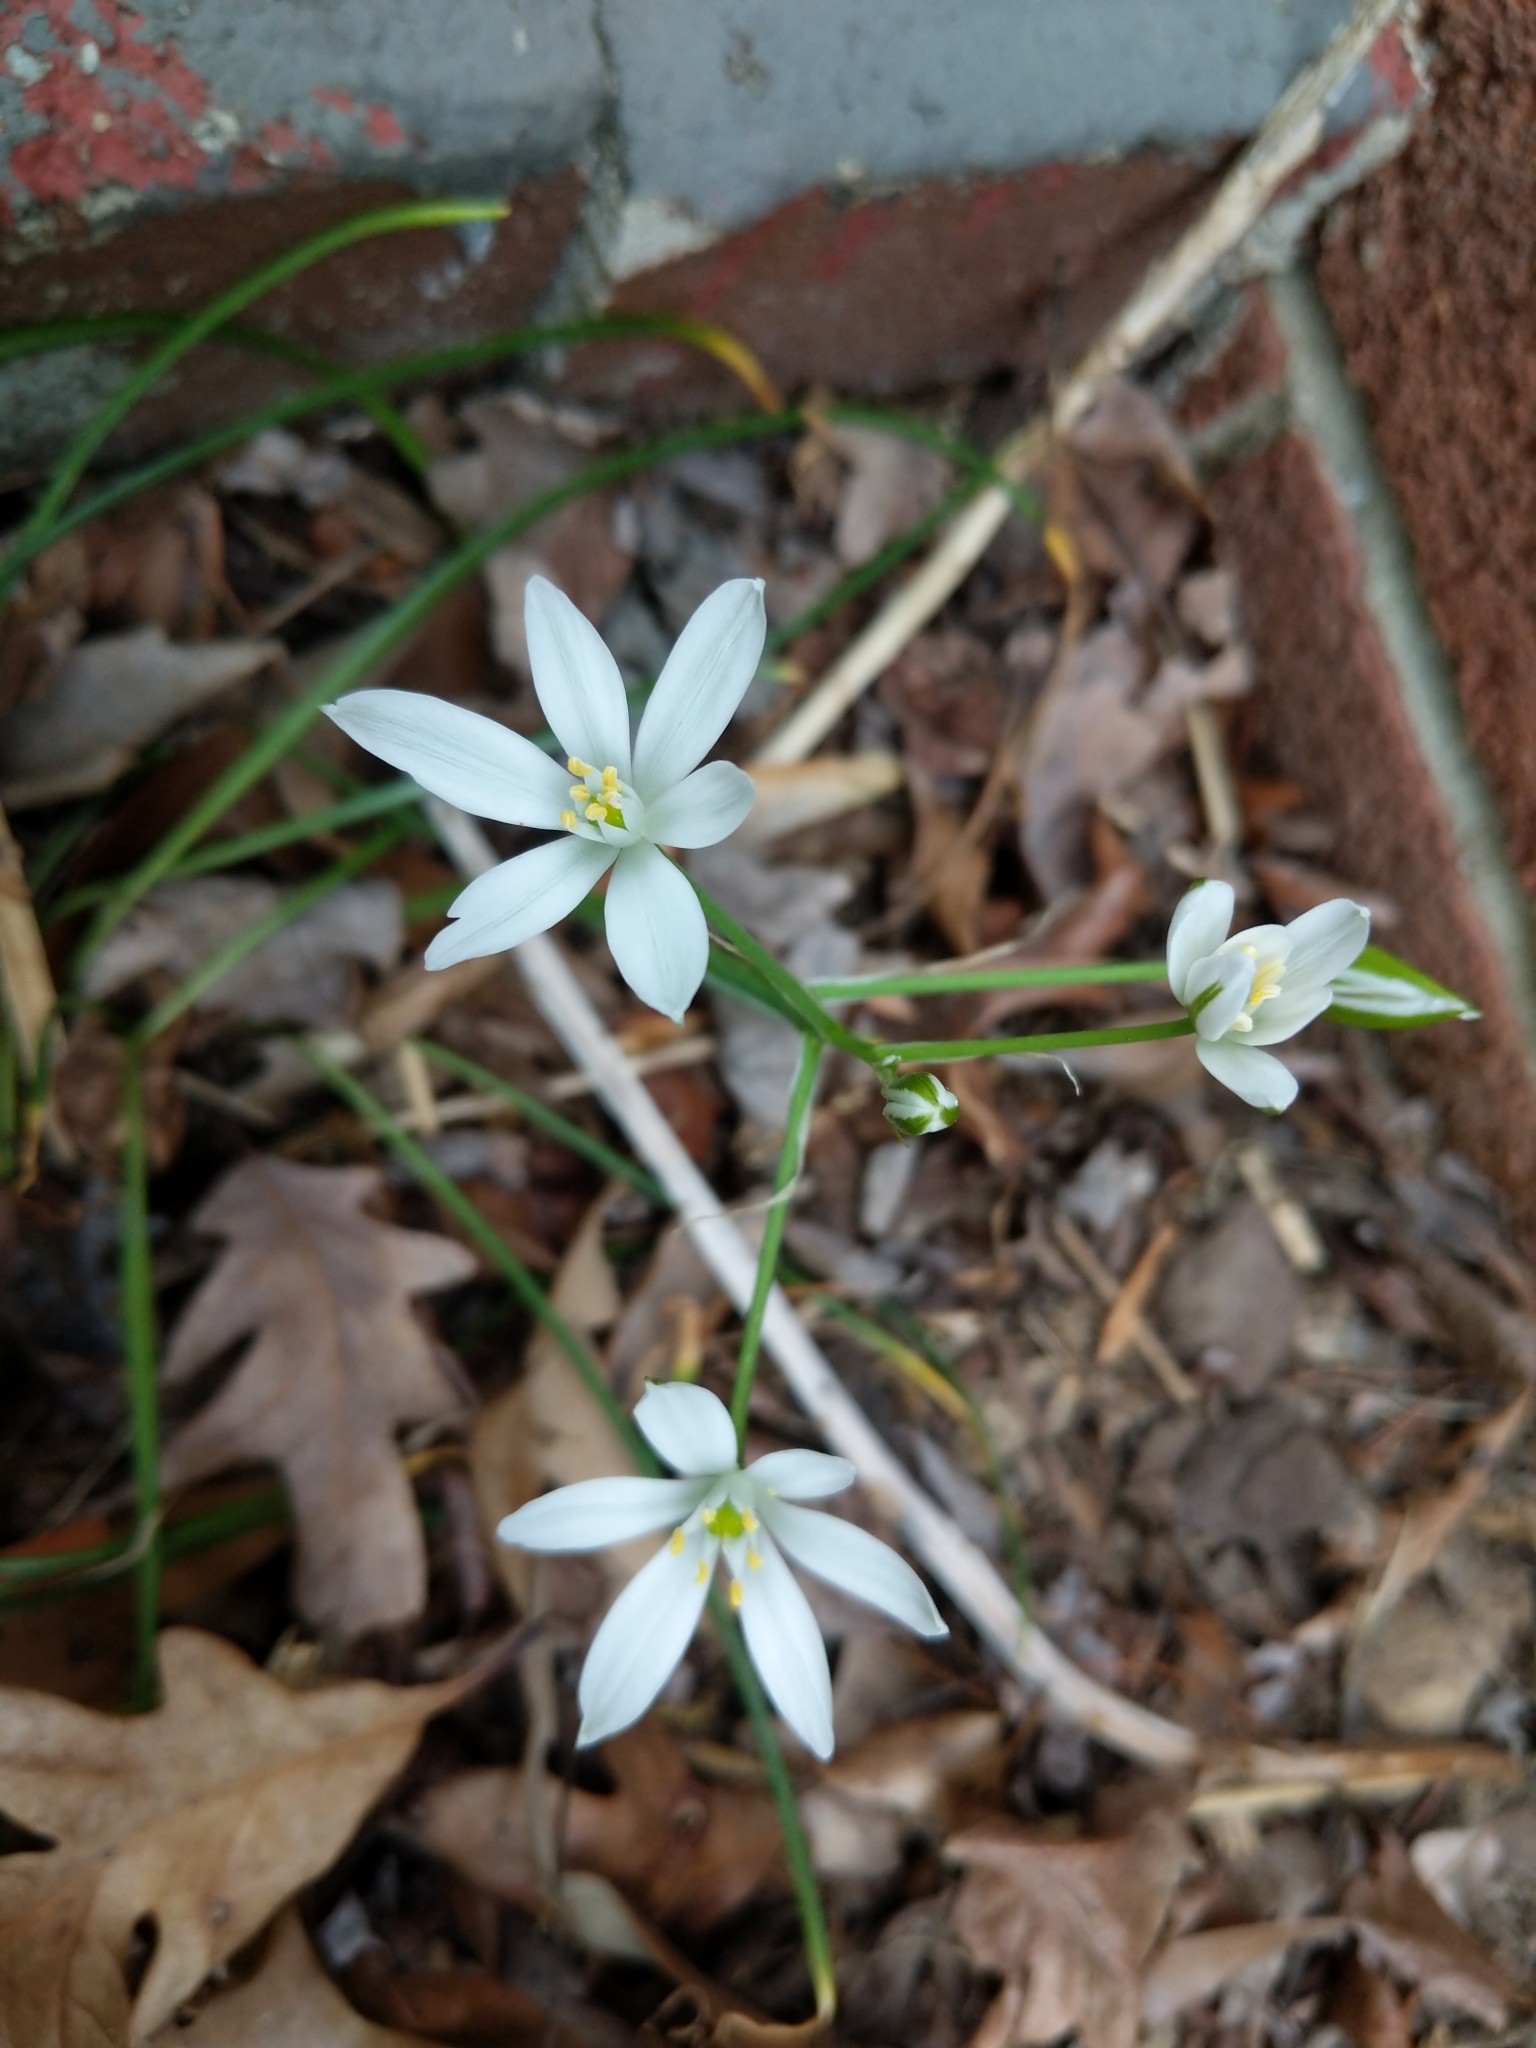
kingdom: Plantae
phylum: Tracheophyta
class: Liliopsida
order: Asparagales
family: Asparagaceae
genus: Ornithogalum
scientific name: Ornithogalum umbellatum
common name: Garden star-of-bethlehem
